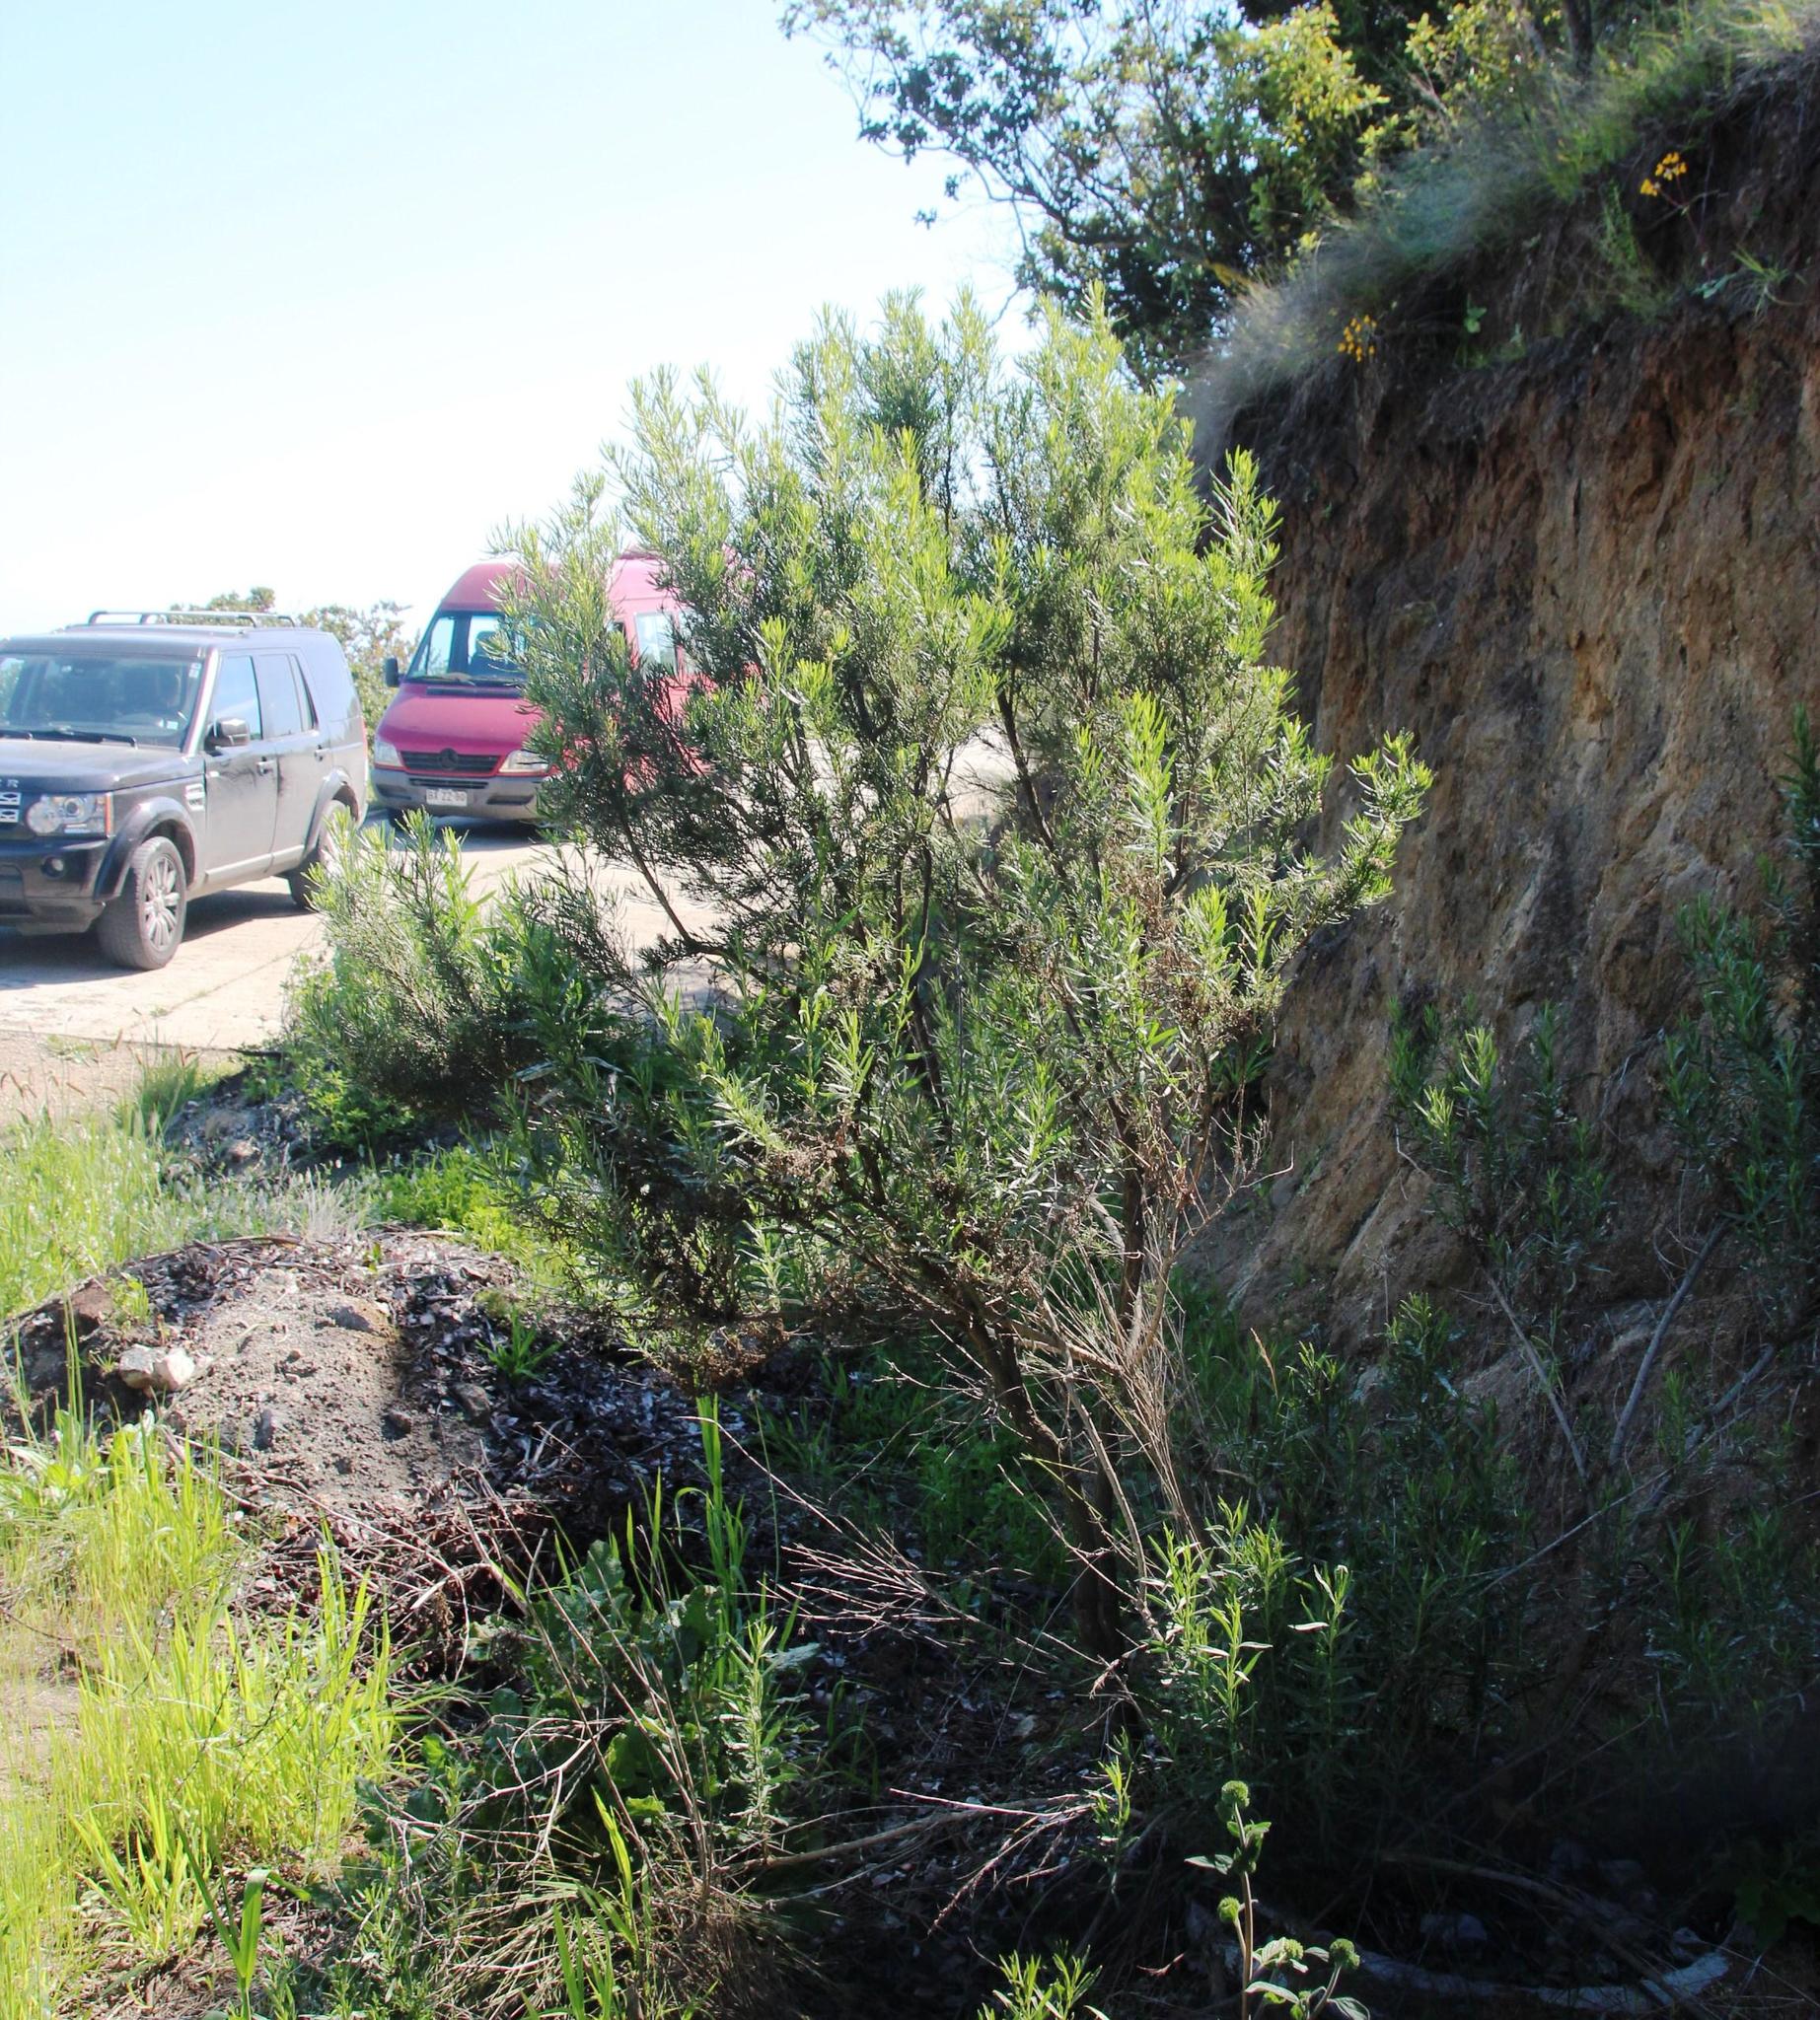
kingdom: Plantae
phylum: Tracheophyta
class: Magnoliopsida
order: Asterales
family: Asteraceae
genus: Baccharis
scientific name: Baccharis linearis
